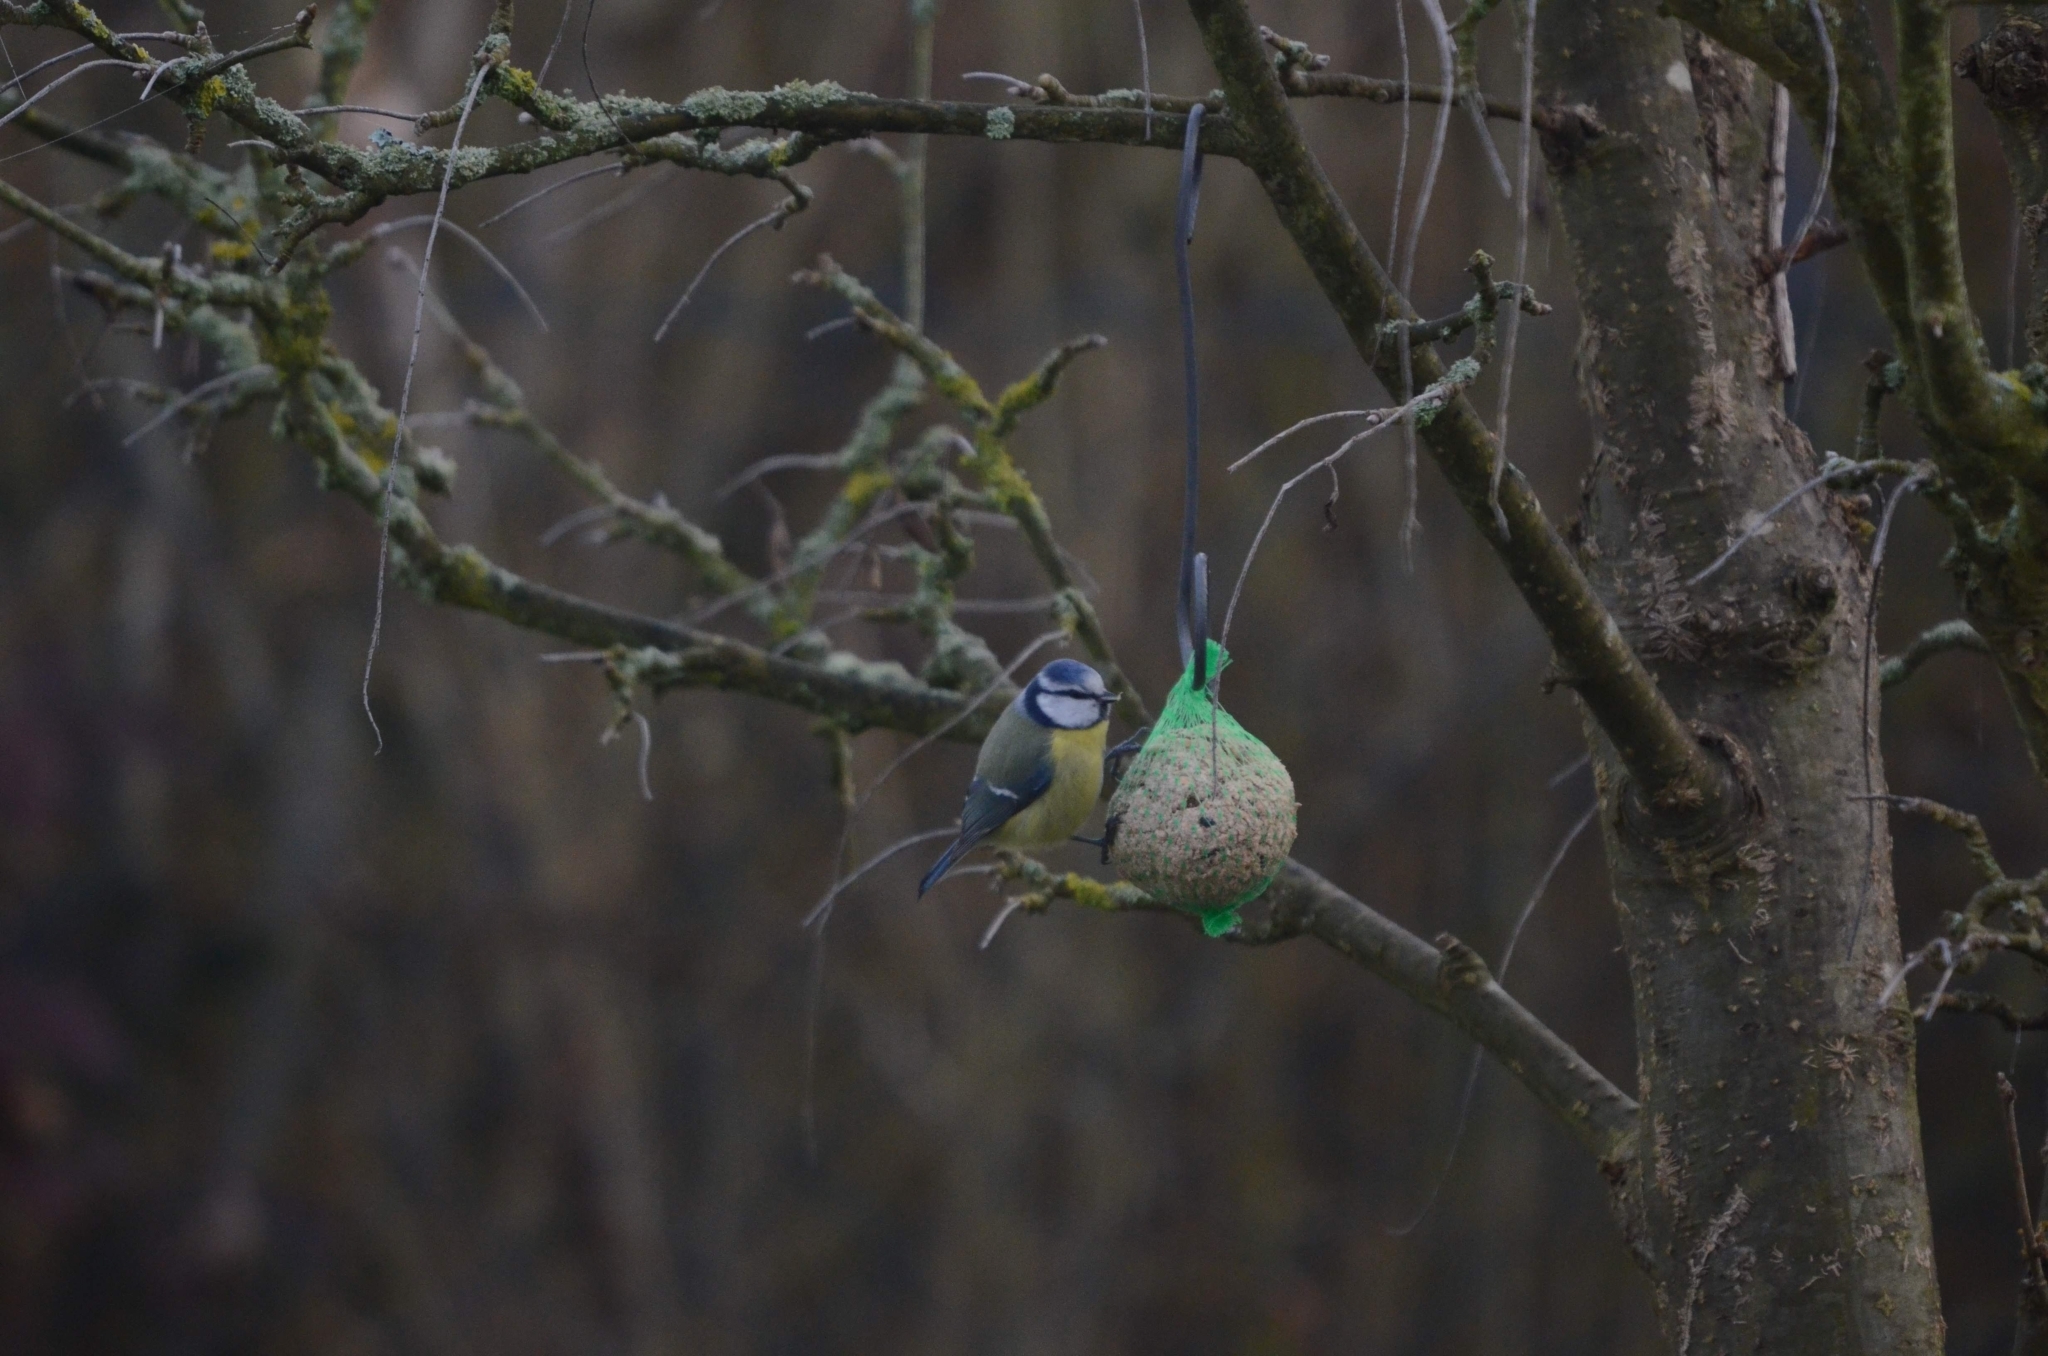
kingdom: Animalia
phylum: Chordata
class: Aves
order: Passeriformes
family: Paridae
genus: Cyanistes
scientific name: Cyanistes caeruleus
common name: Eurasian blue tit
